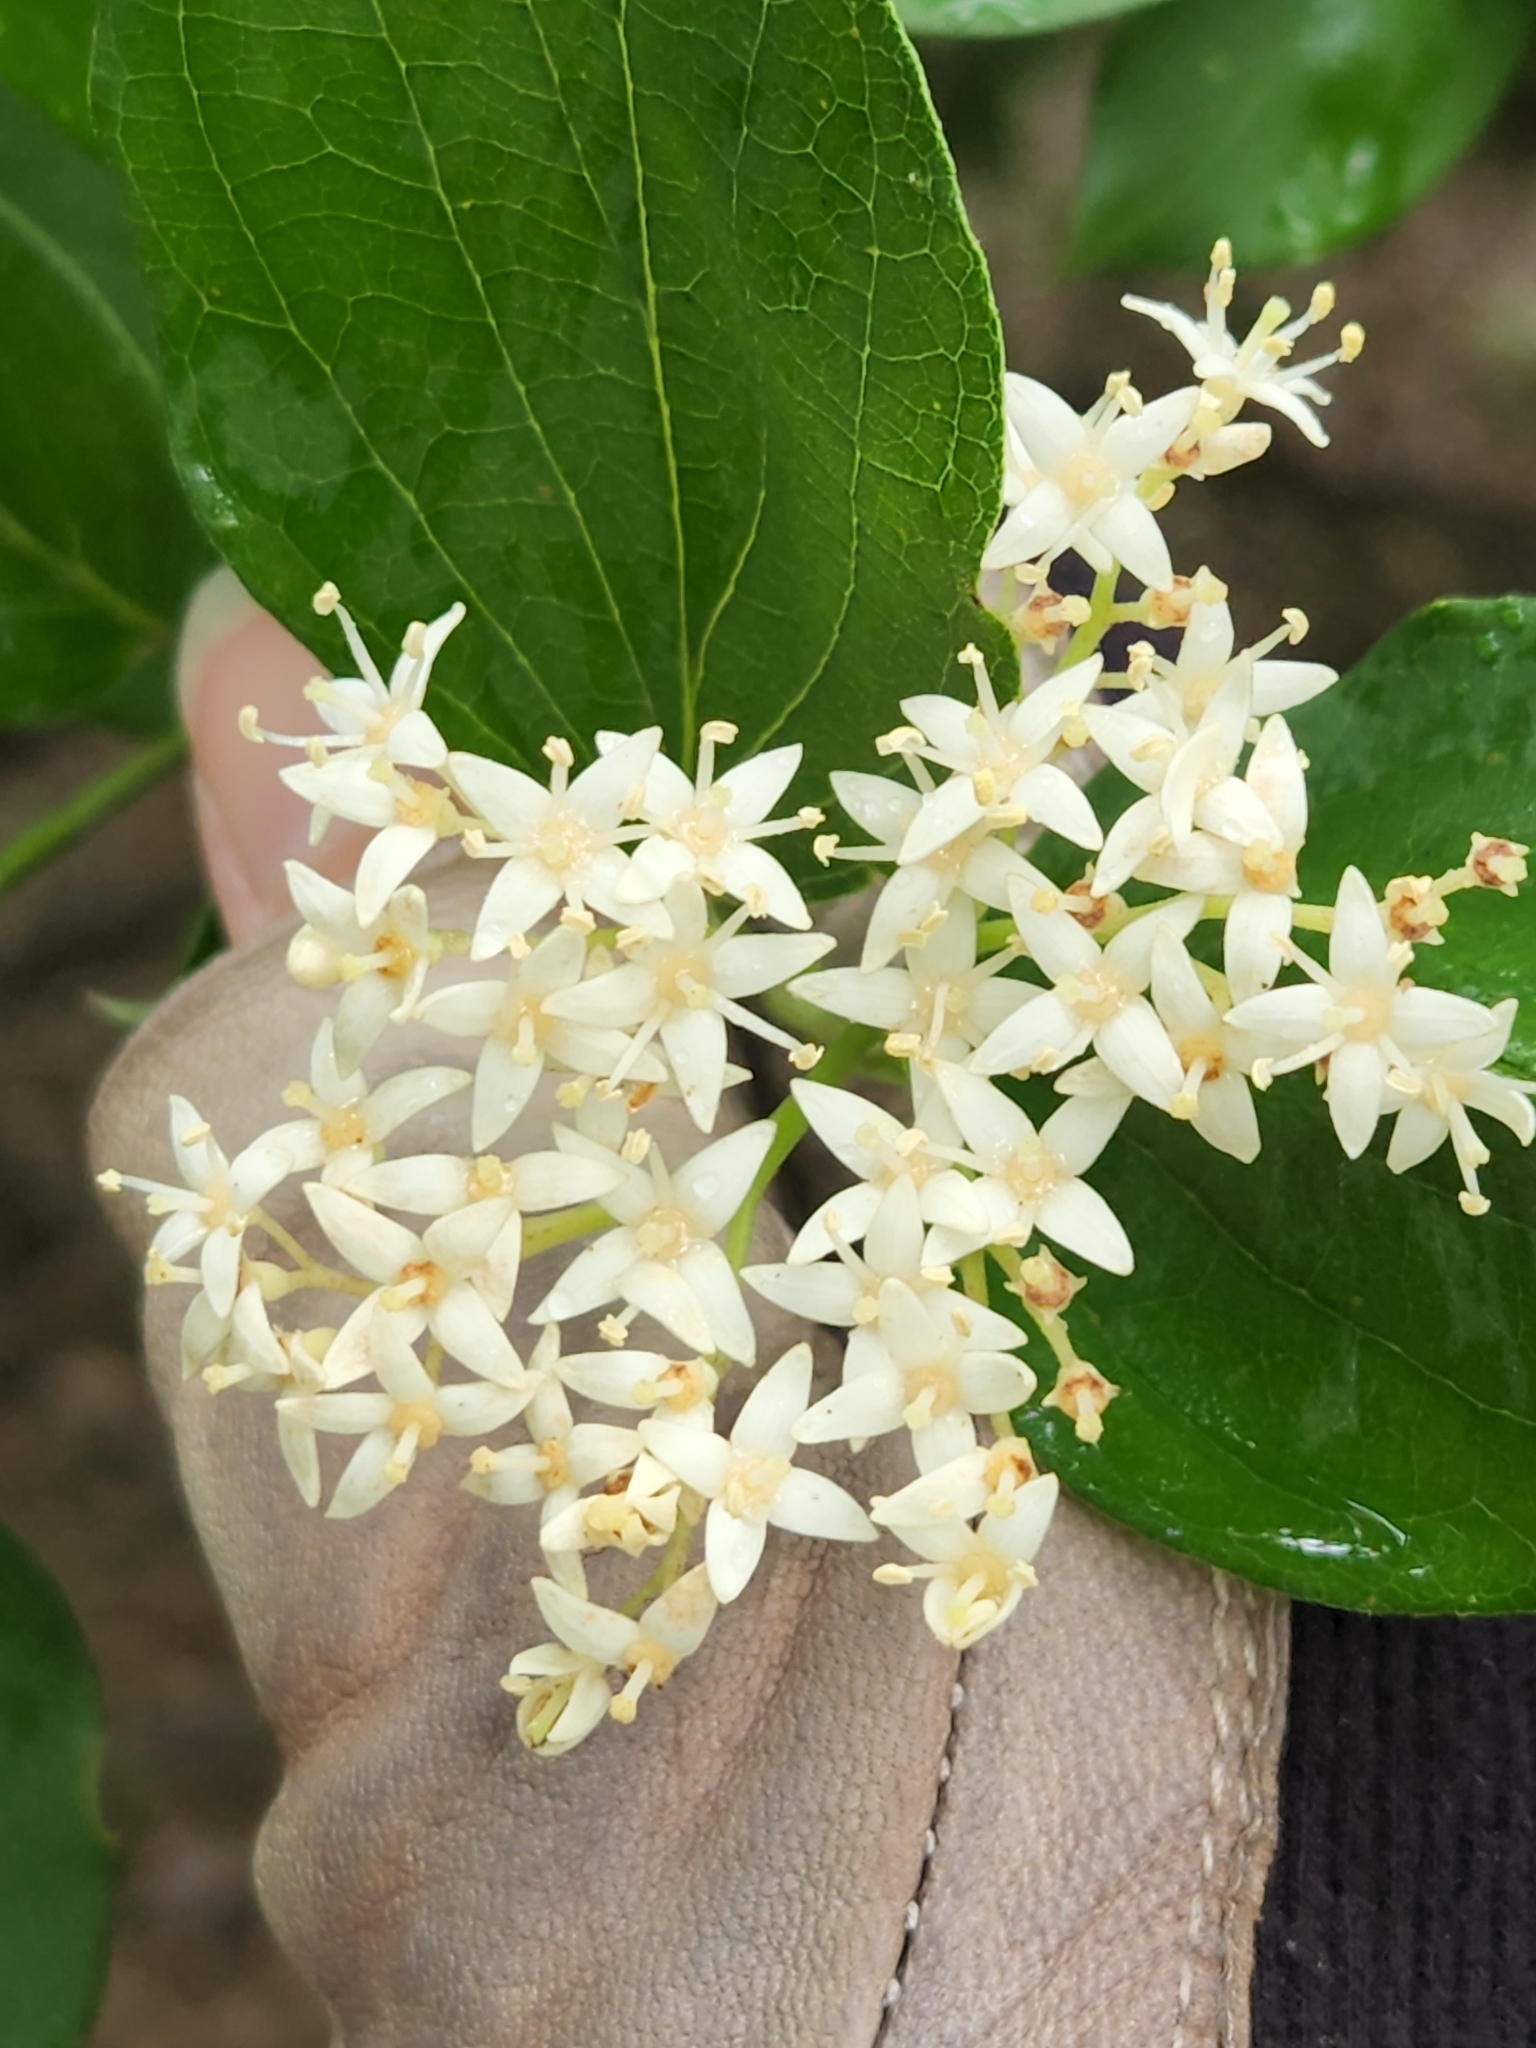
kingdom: Plantae
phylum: Tracheophyta
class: Magnoliopsida
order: Cornales
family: Cornaceae
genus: Cornus
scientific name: Cornus drummondii
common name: Rough-leaf dogwood
